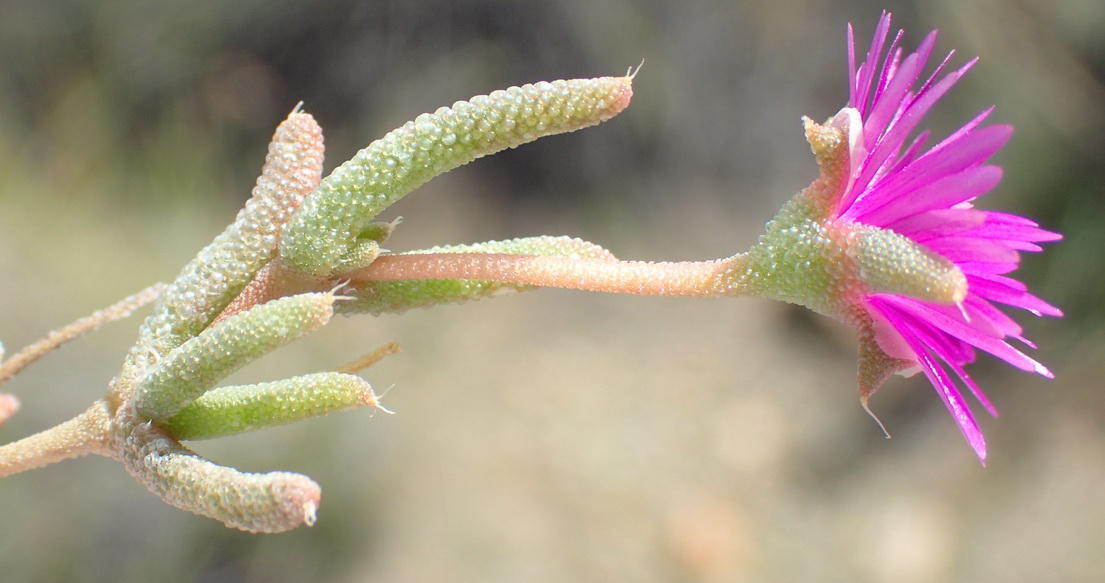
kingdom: Plantae
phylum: Tracheophyta
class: Magnoliopsida
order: Caryophyllales
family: Aizoaceae
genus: Trichodiadema
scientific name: Trichodiadema rogersiae
